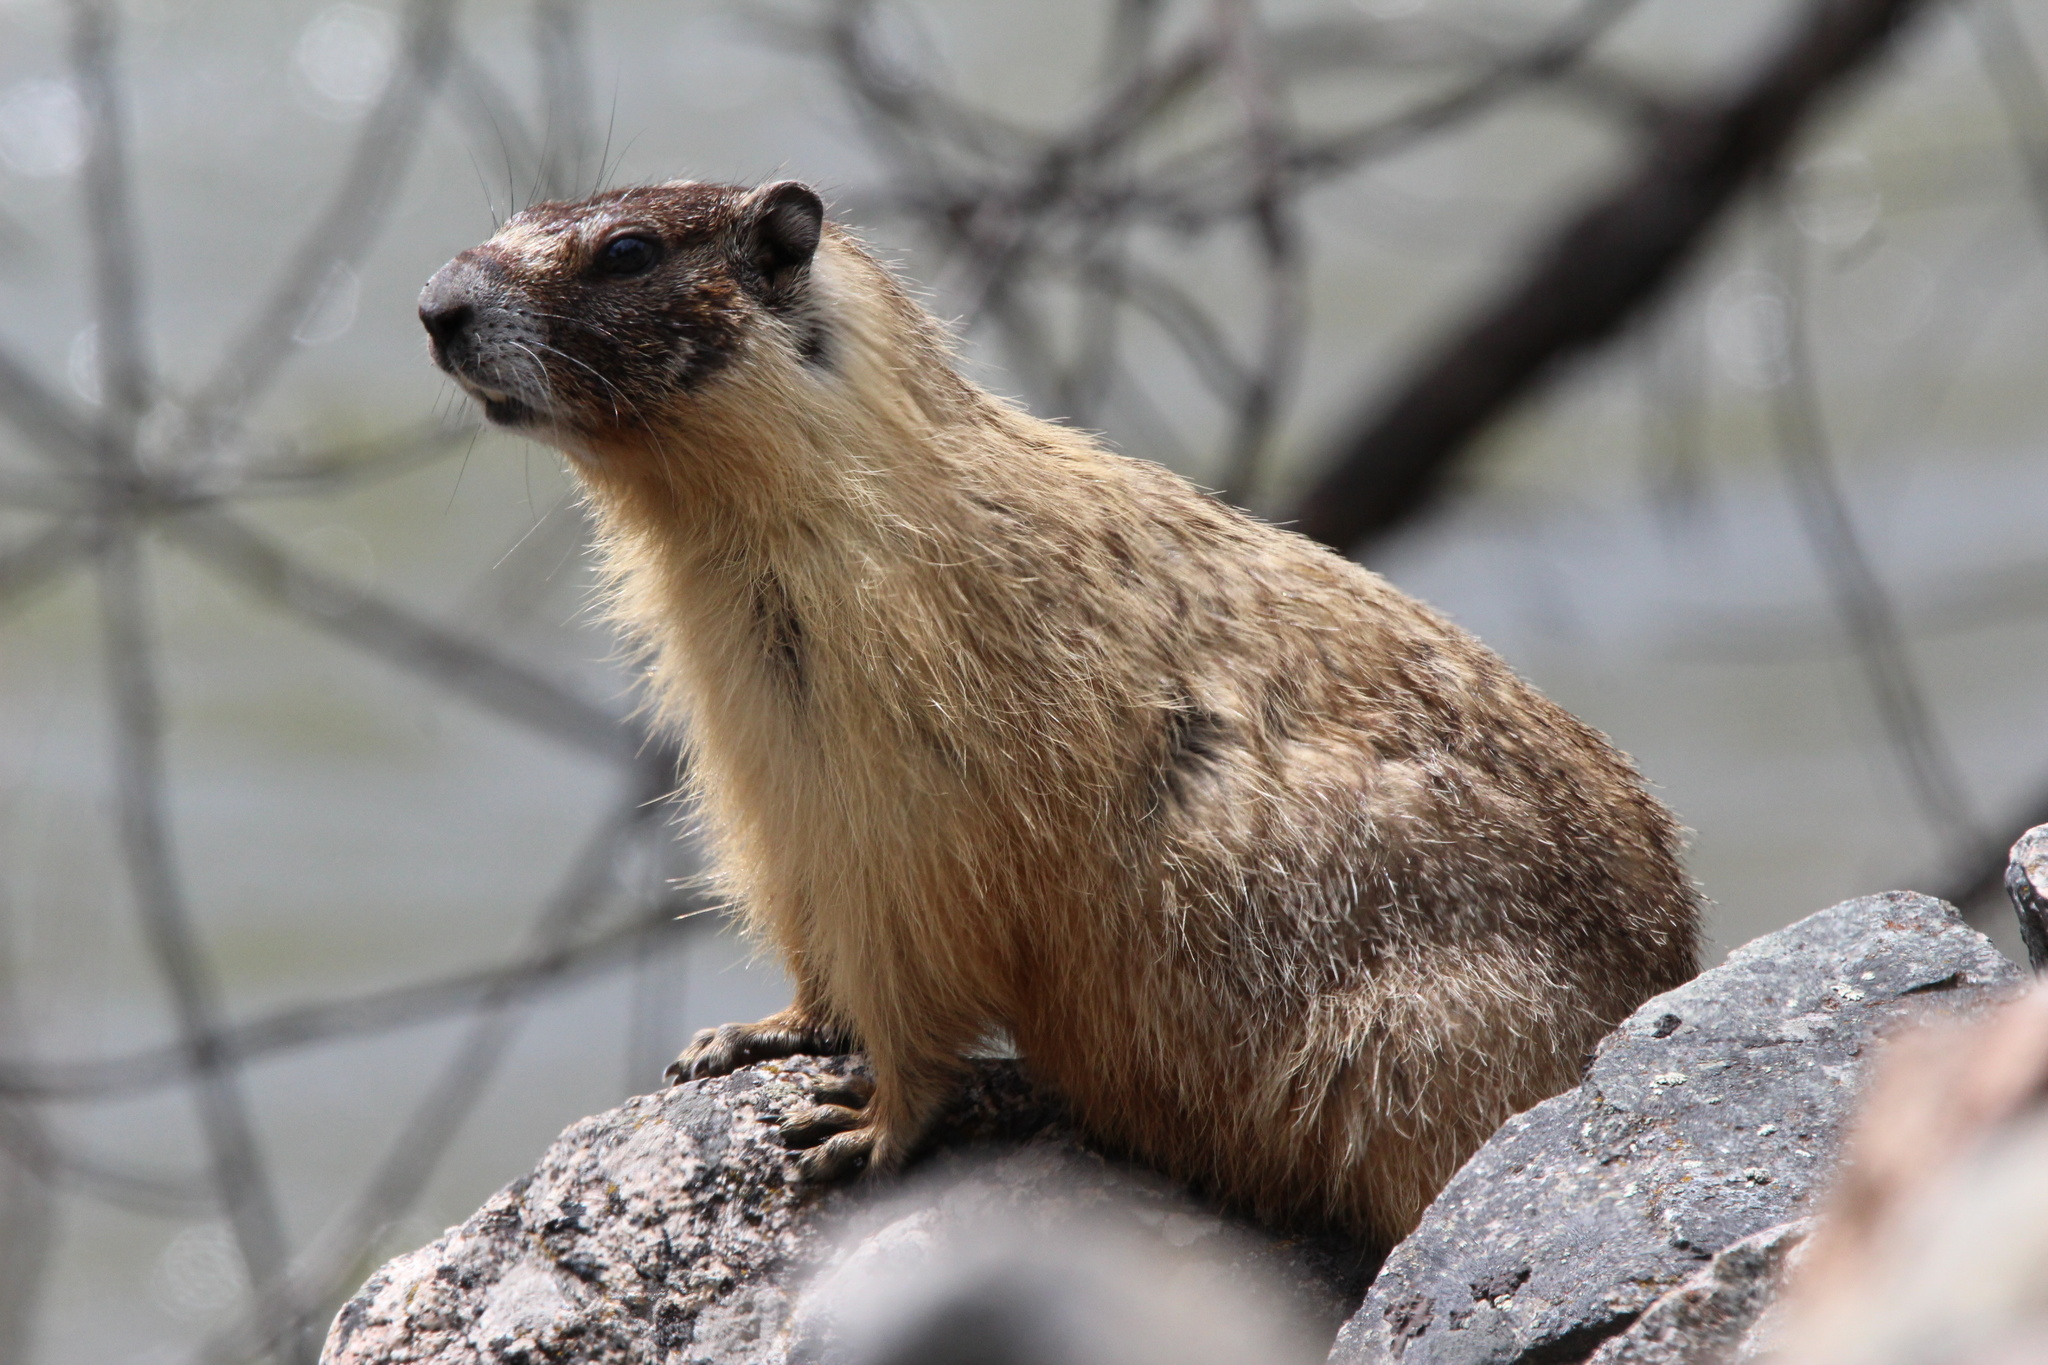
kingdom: Animalia
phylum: Chordata
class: Mammalia
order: Rodentia
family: Sciuridae
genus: Marmota
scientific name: Marmota flaviventris
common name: Yellow-bellied marmot
